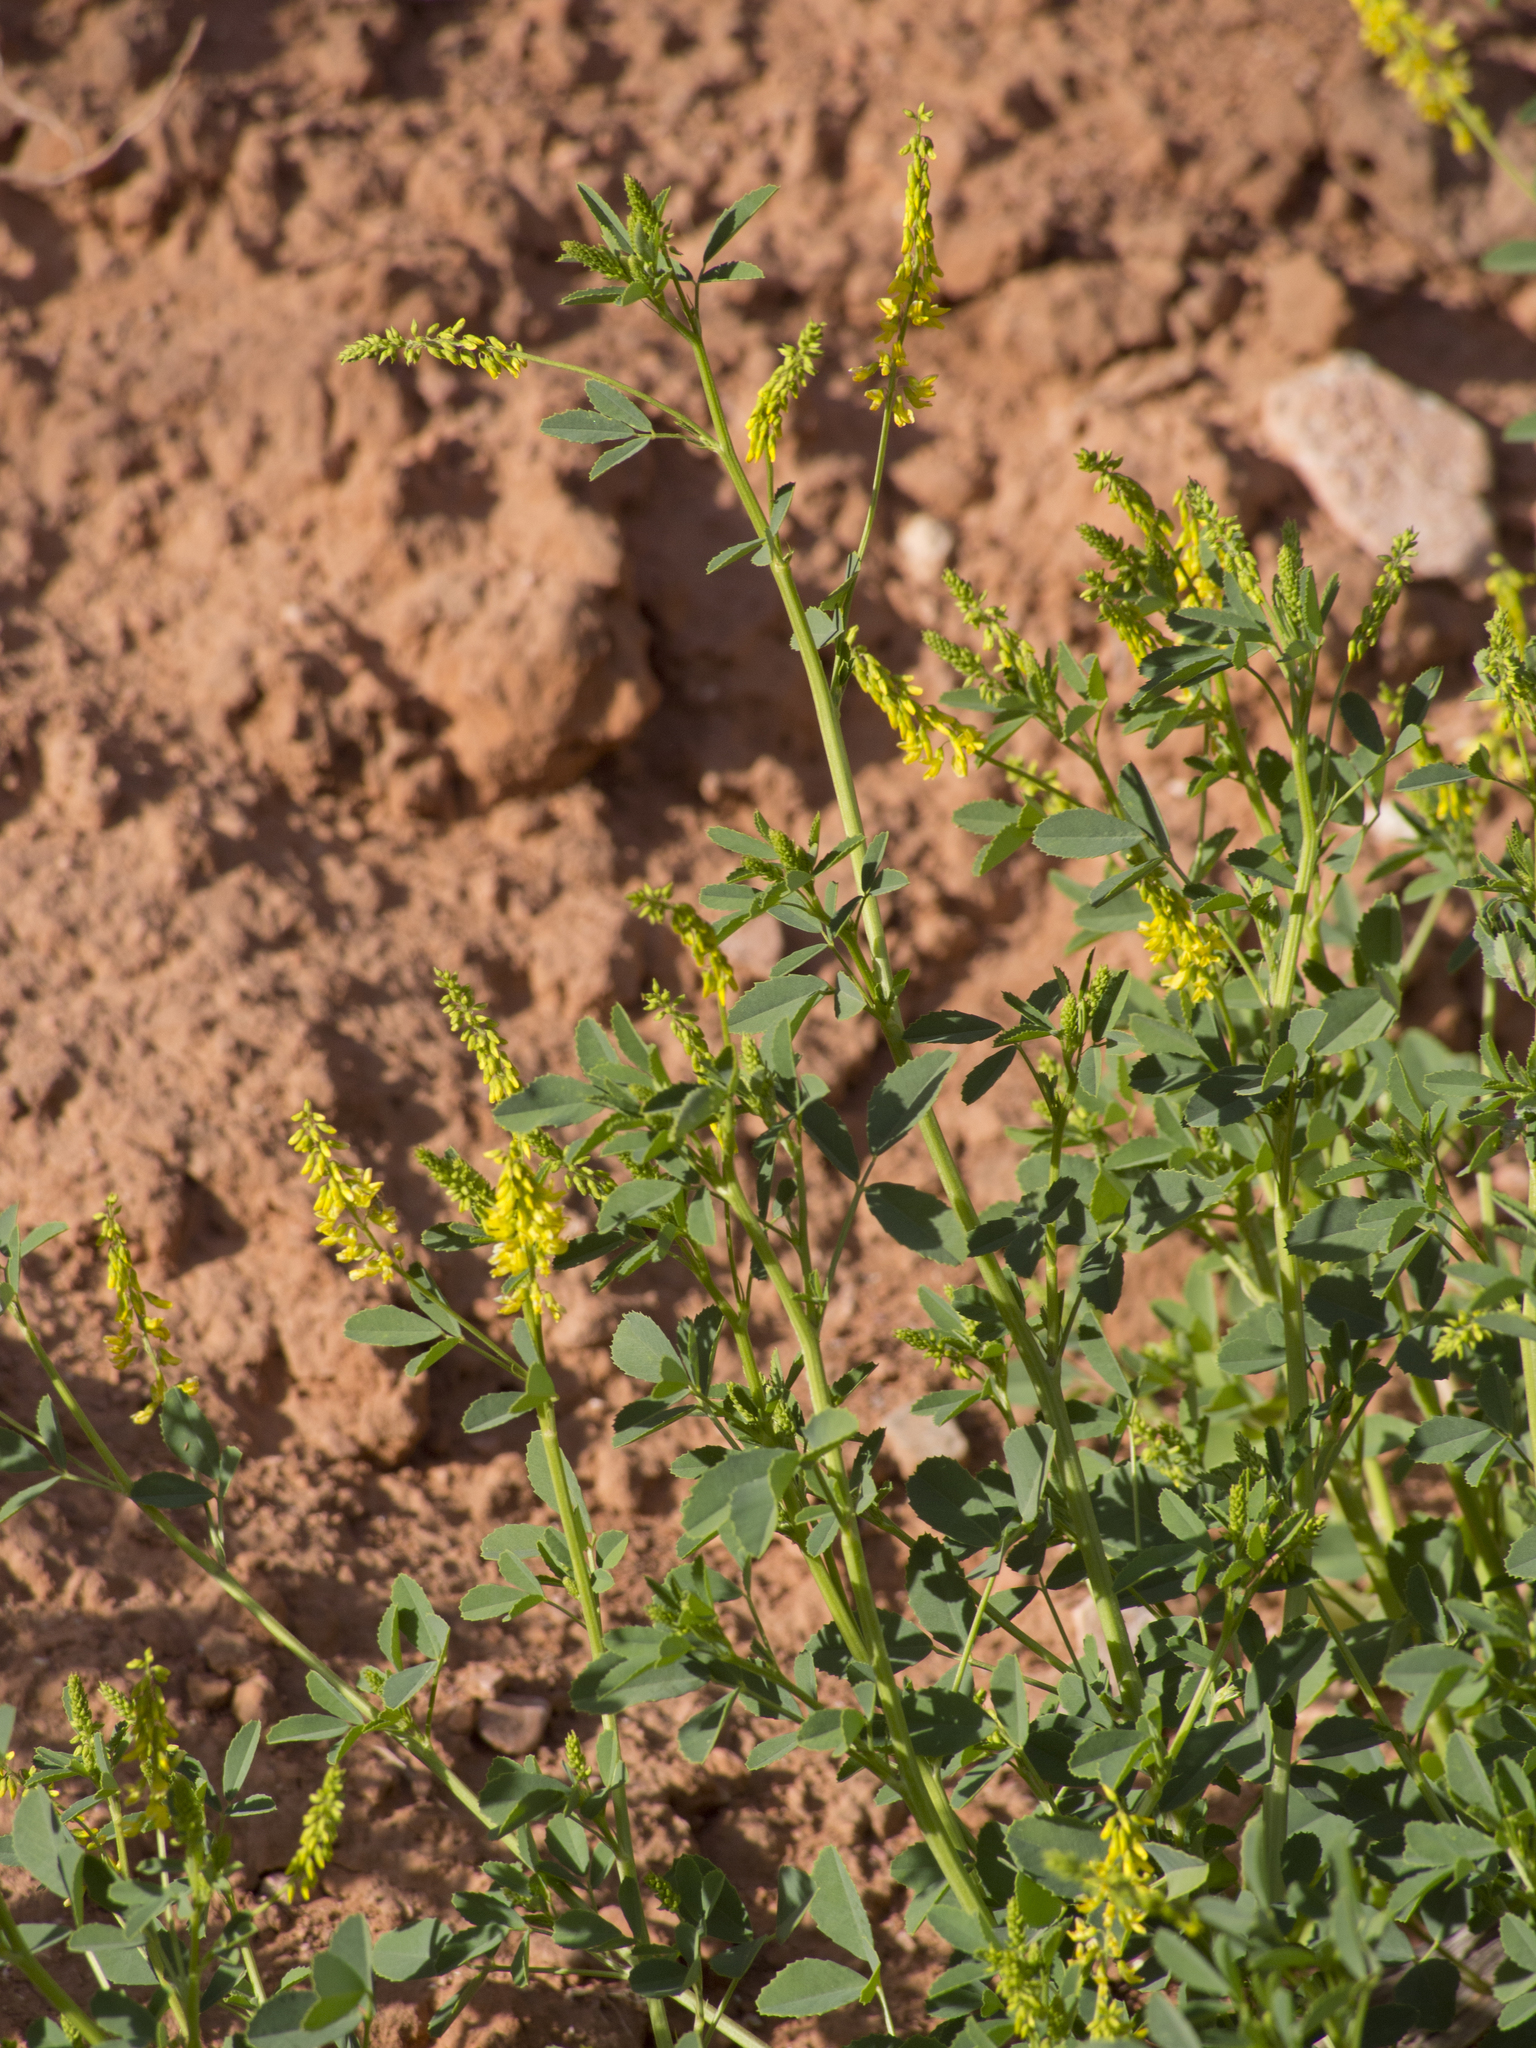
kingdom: Plantae
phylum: Tracheophyta
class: Magnoliopsida
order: Fabales
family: Fabaceae
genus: Melilotus
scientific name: Melilotus officinalis
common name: Sweetclover
